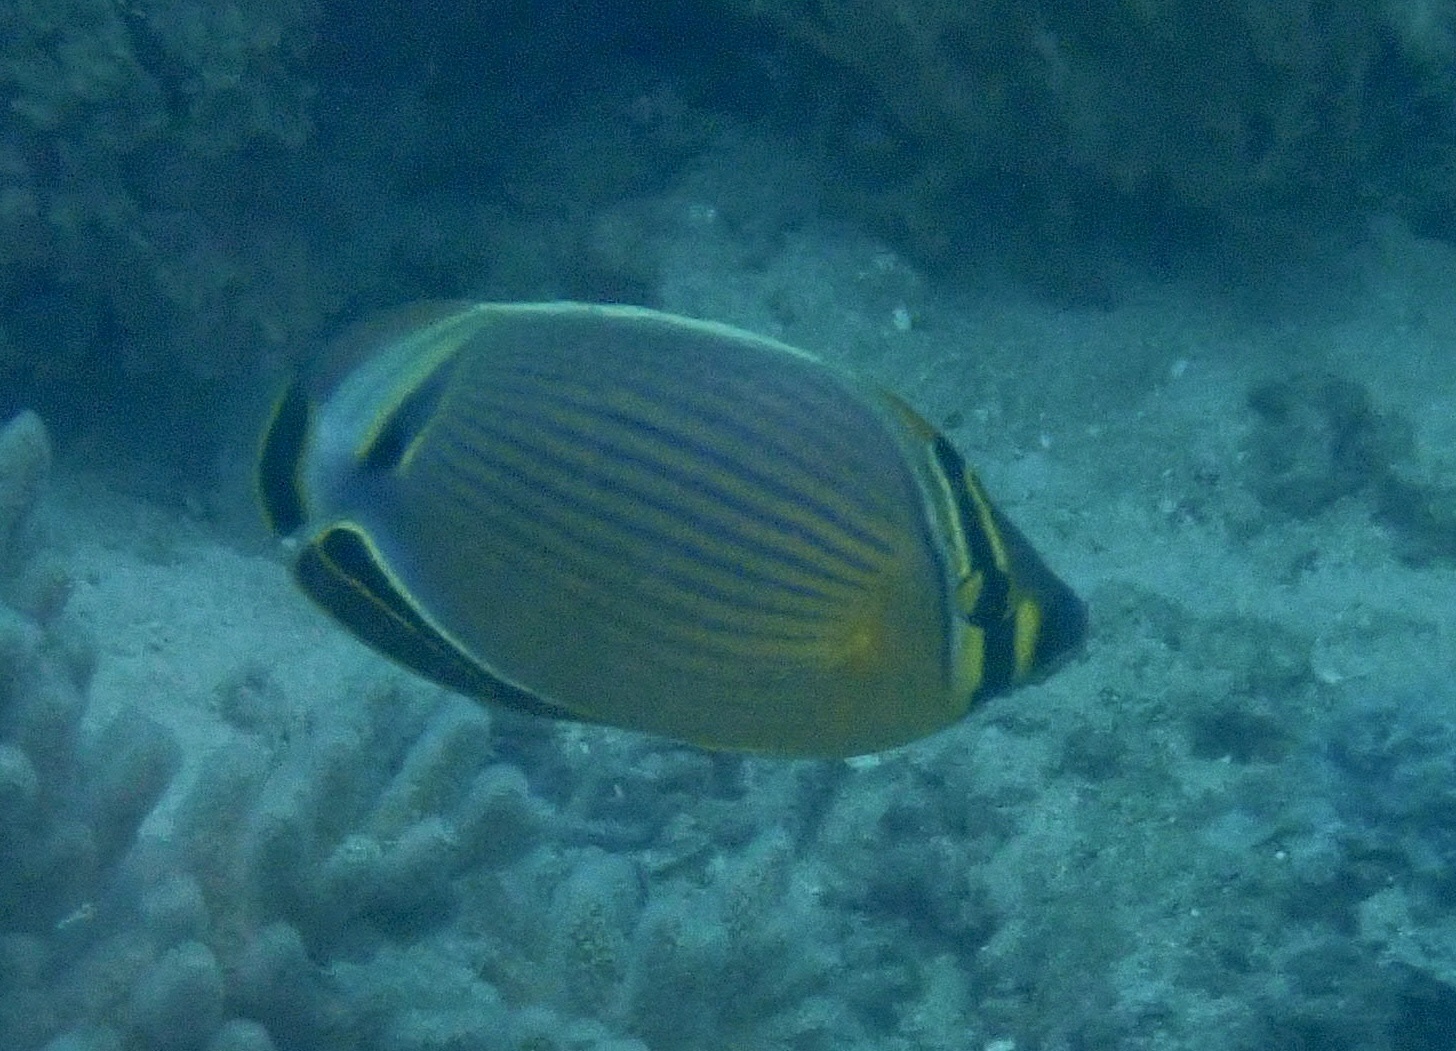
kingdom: Animalia
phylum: Chordata
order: Perciformes
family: Chaetodontidae
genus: Chaetodon
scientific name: Chaetodon lunulatus
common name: Redfin butterflyfish
